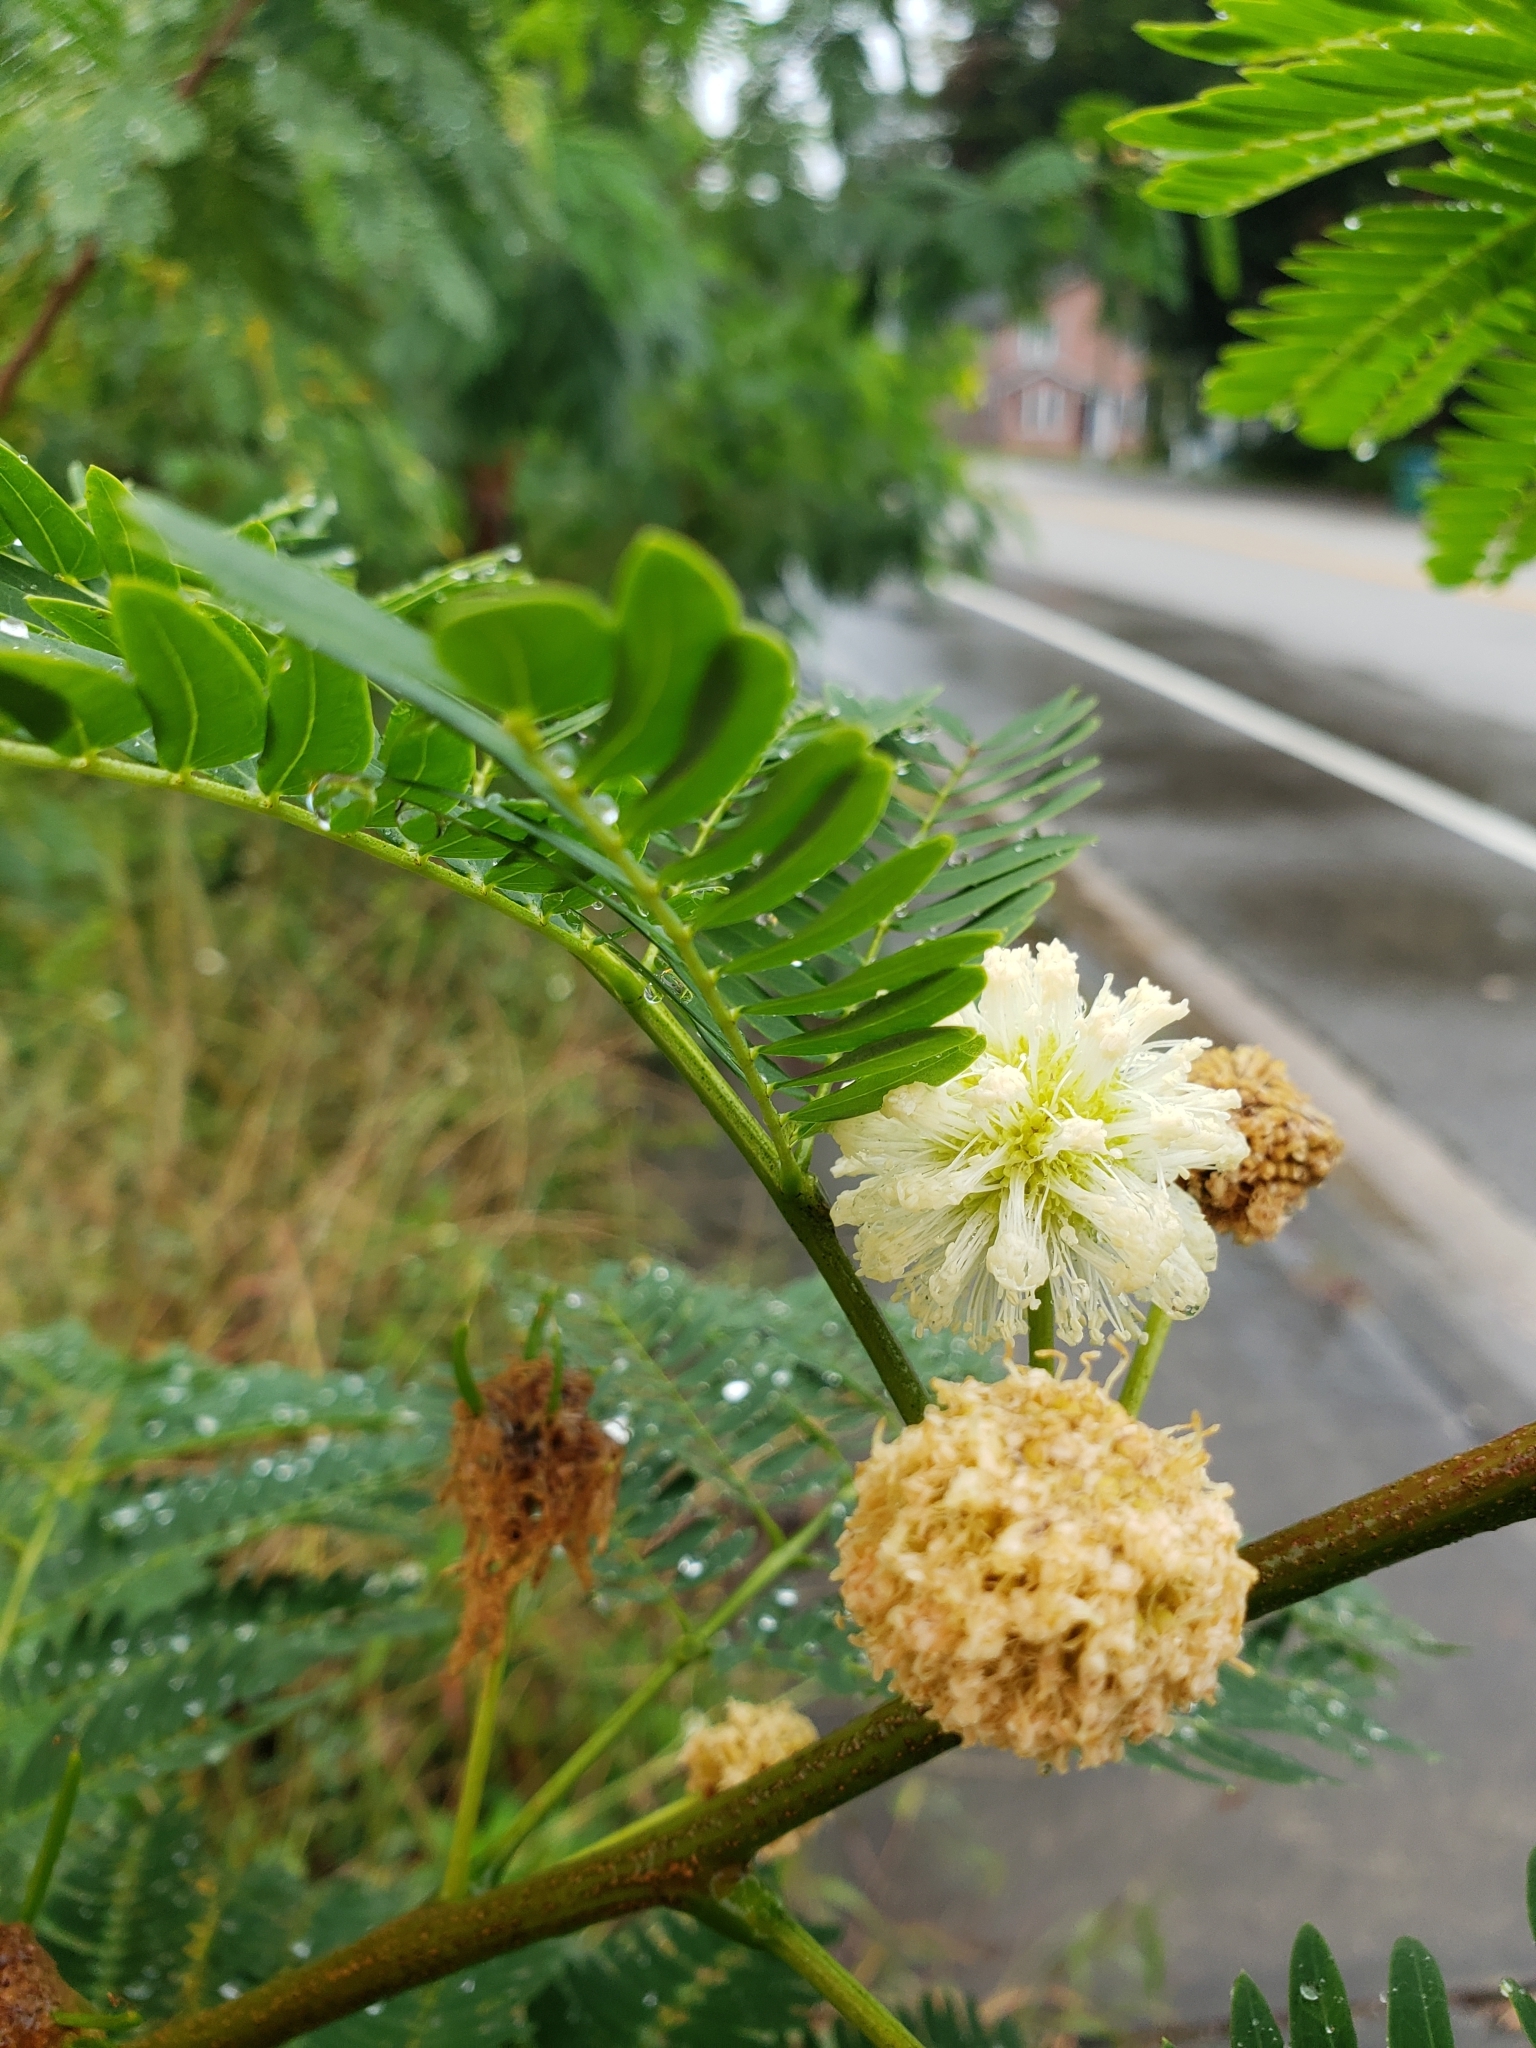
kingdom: Plantae
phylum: Tracheophyta
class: Magnoliopsida
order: Fabales
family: Fabaceae
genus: Leucaena
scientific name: Leucaena leucocephala
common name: White leadtree
